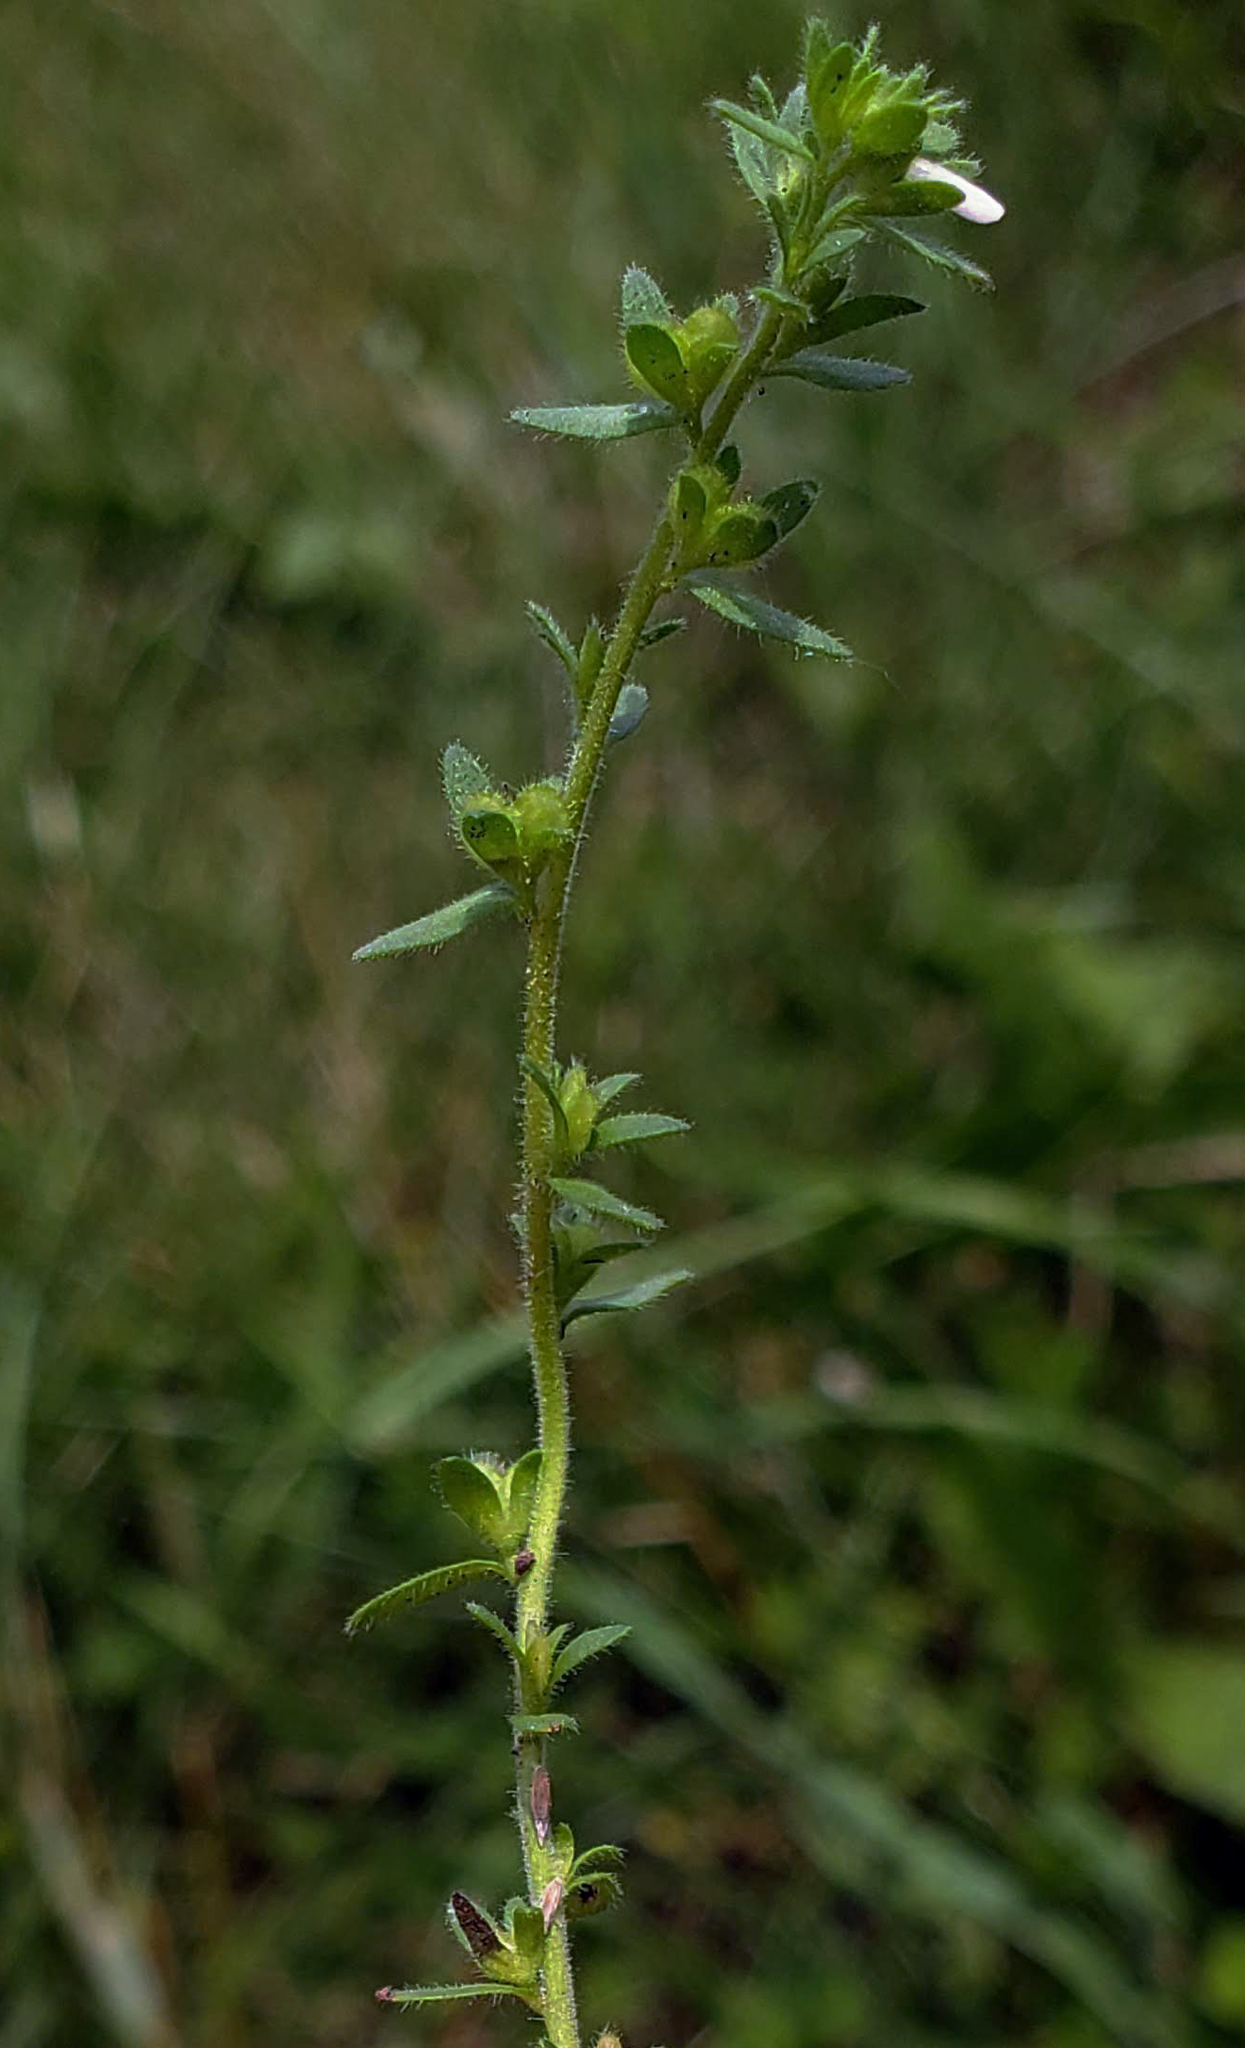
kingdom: Plantae
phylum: Tracheophyta
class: Magnoliopsida
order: Lamiales
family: Plantaginaceae
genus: Veronica
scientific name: Veronica arvensis
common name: Corn speedwell
